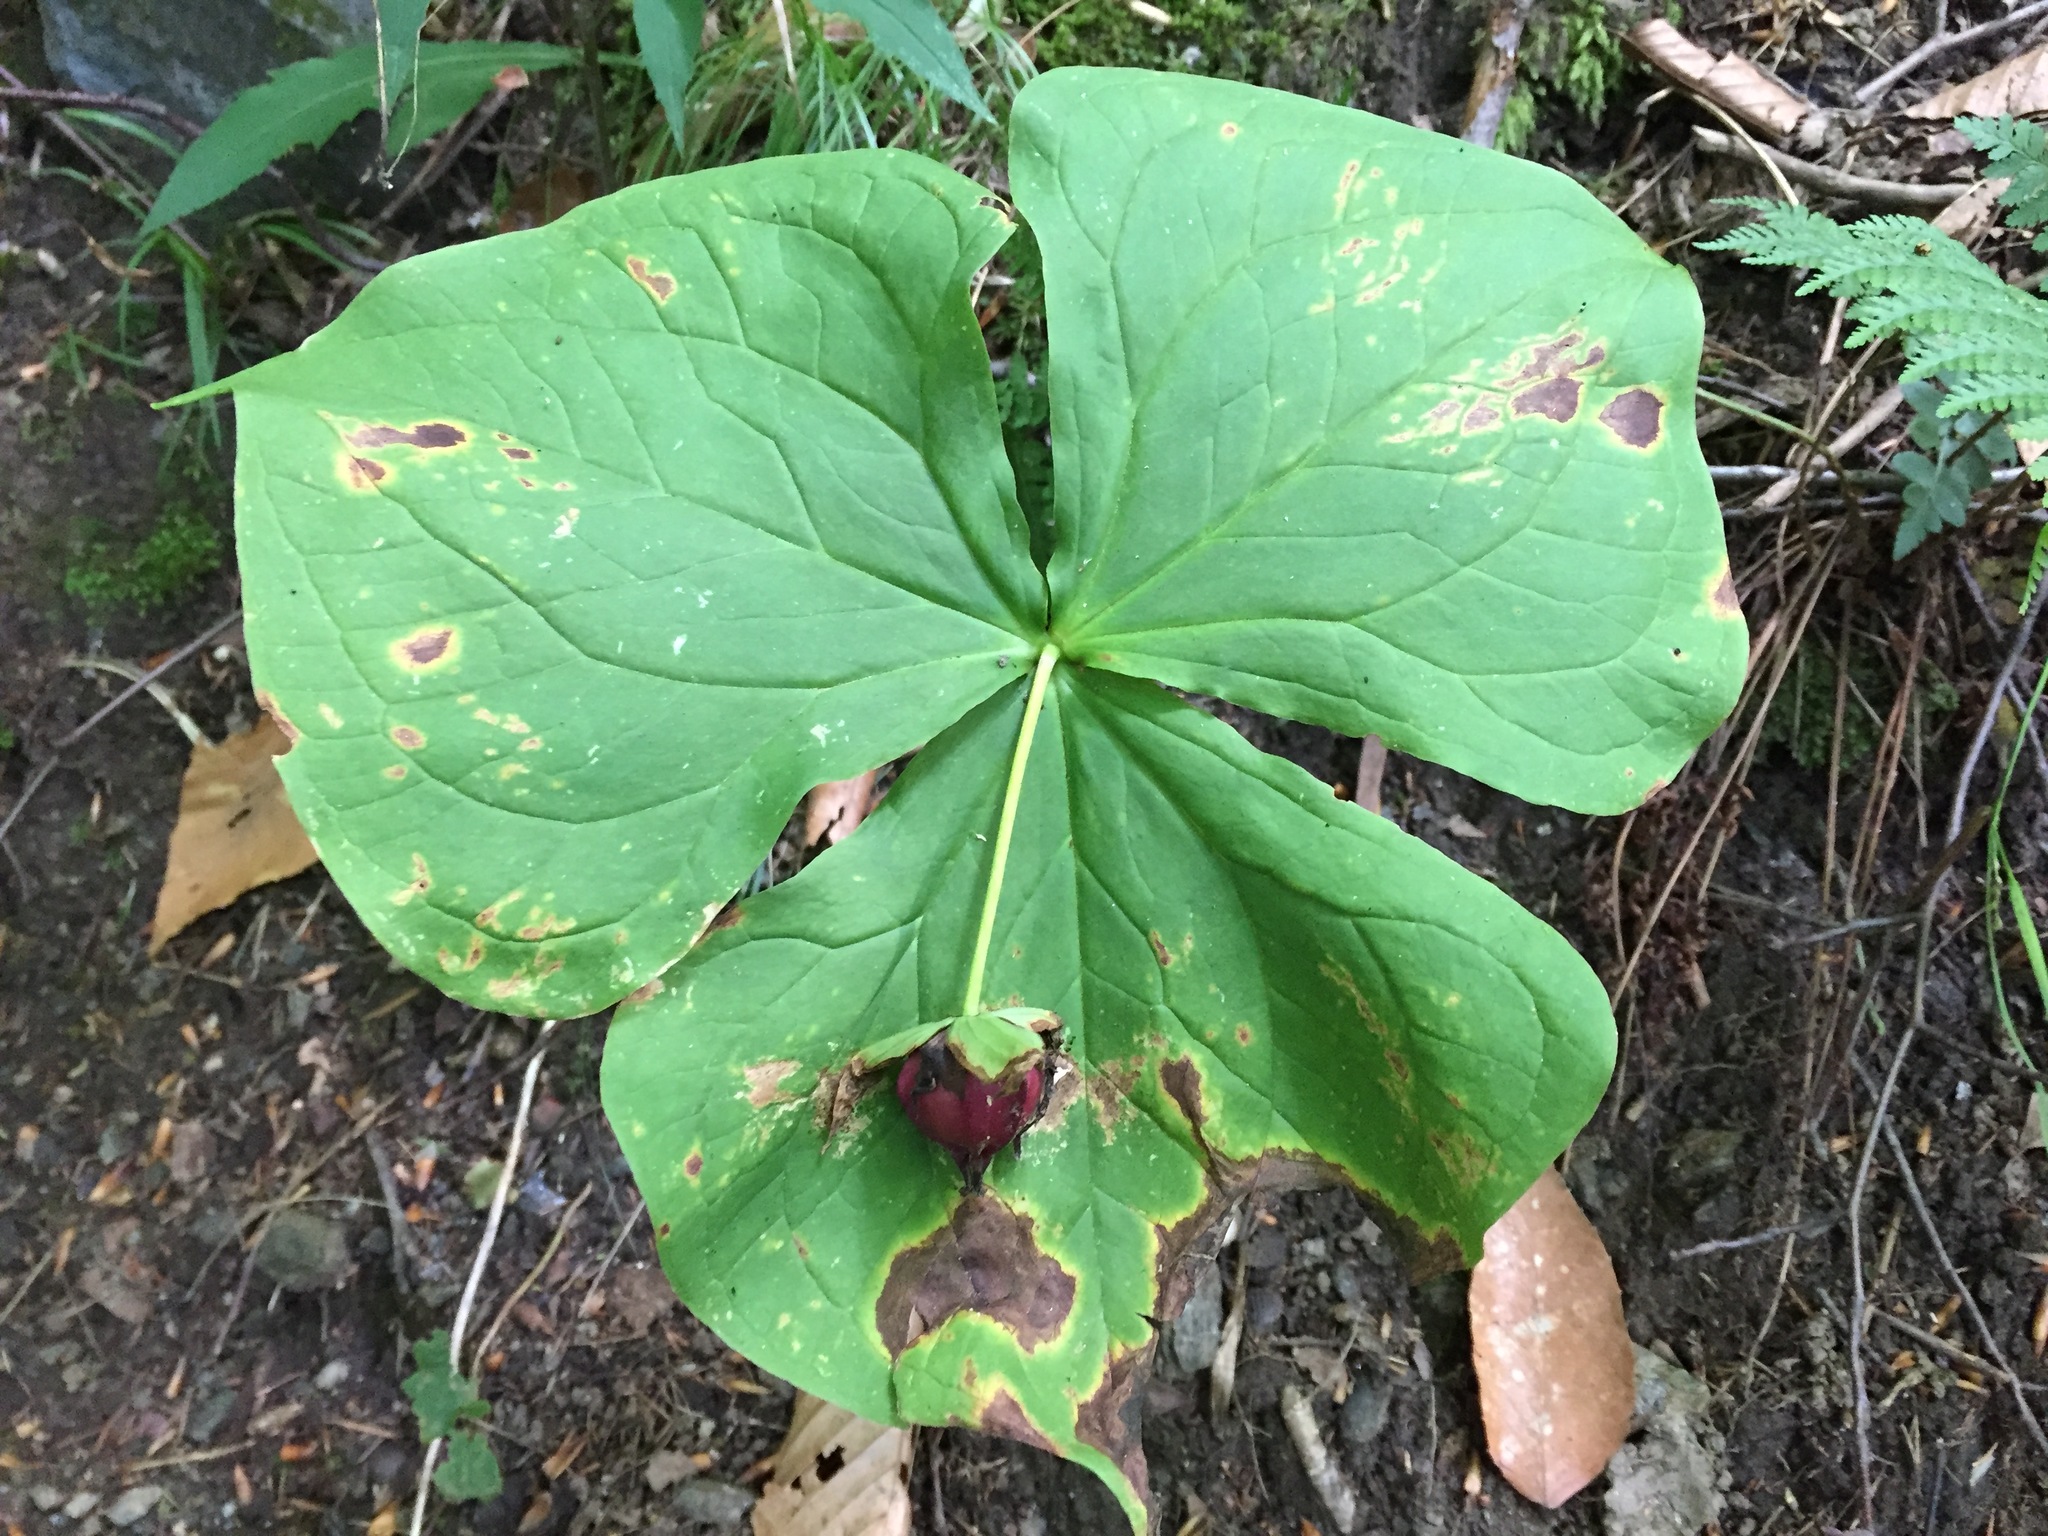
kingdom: Plantae
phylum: Tracheophyta
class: Liliopsida
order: Liliales
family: Melanthiaceae
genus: Trillium
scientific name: Trillium erectum
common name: Purple trillium
